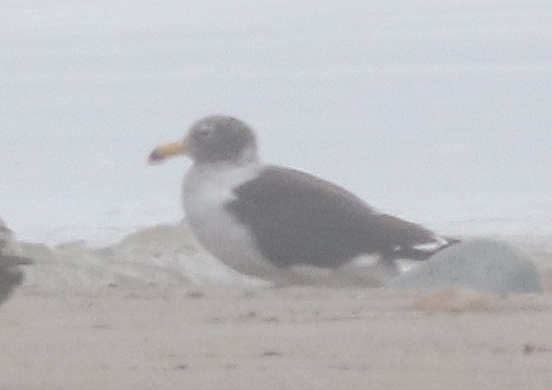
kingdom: Animalia
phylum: Chordata
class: Aves
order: Charadriiformes
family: Laridae
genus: Larus
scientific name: Larus belcheri
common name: Belcher's gull
